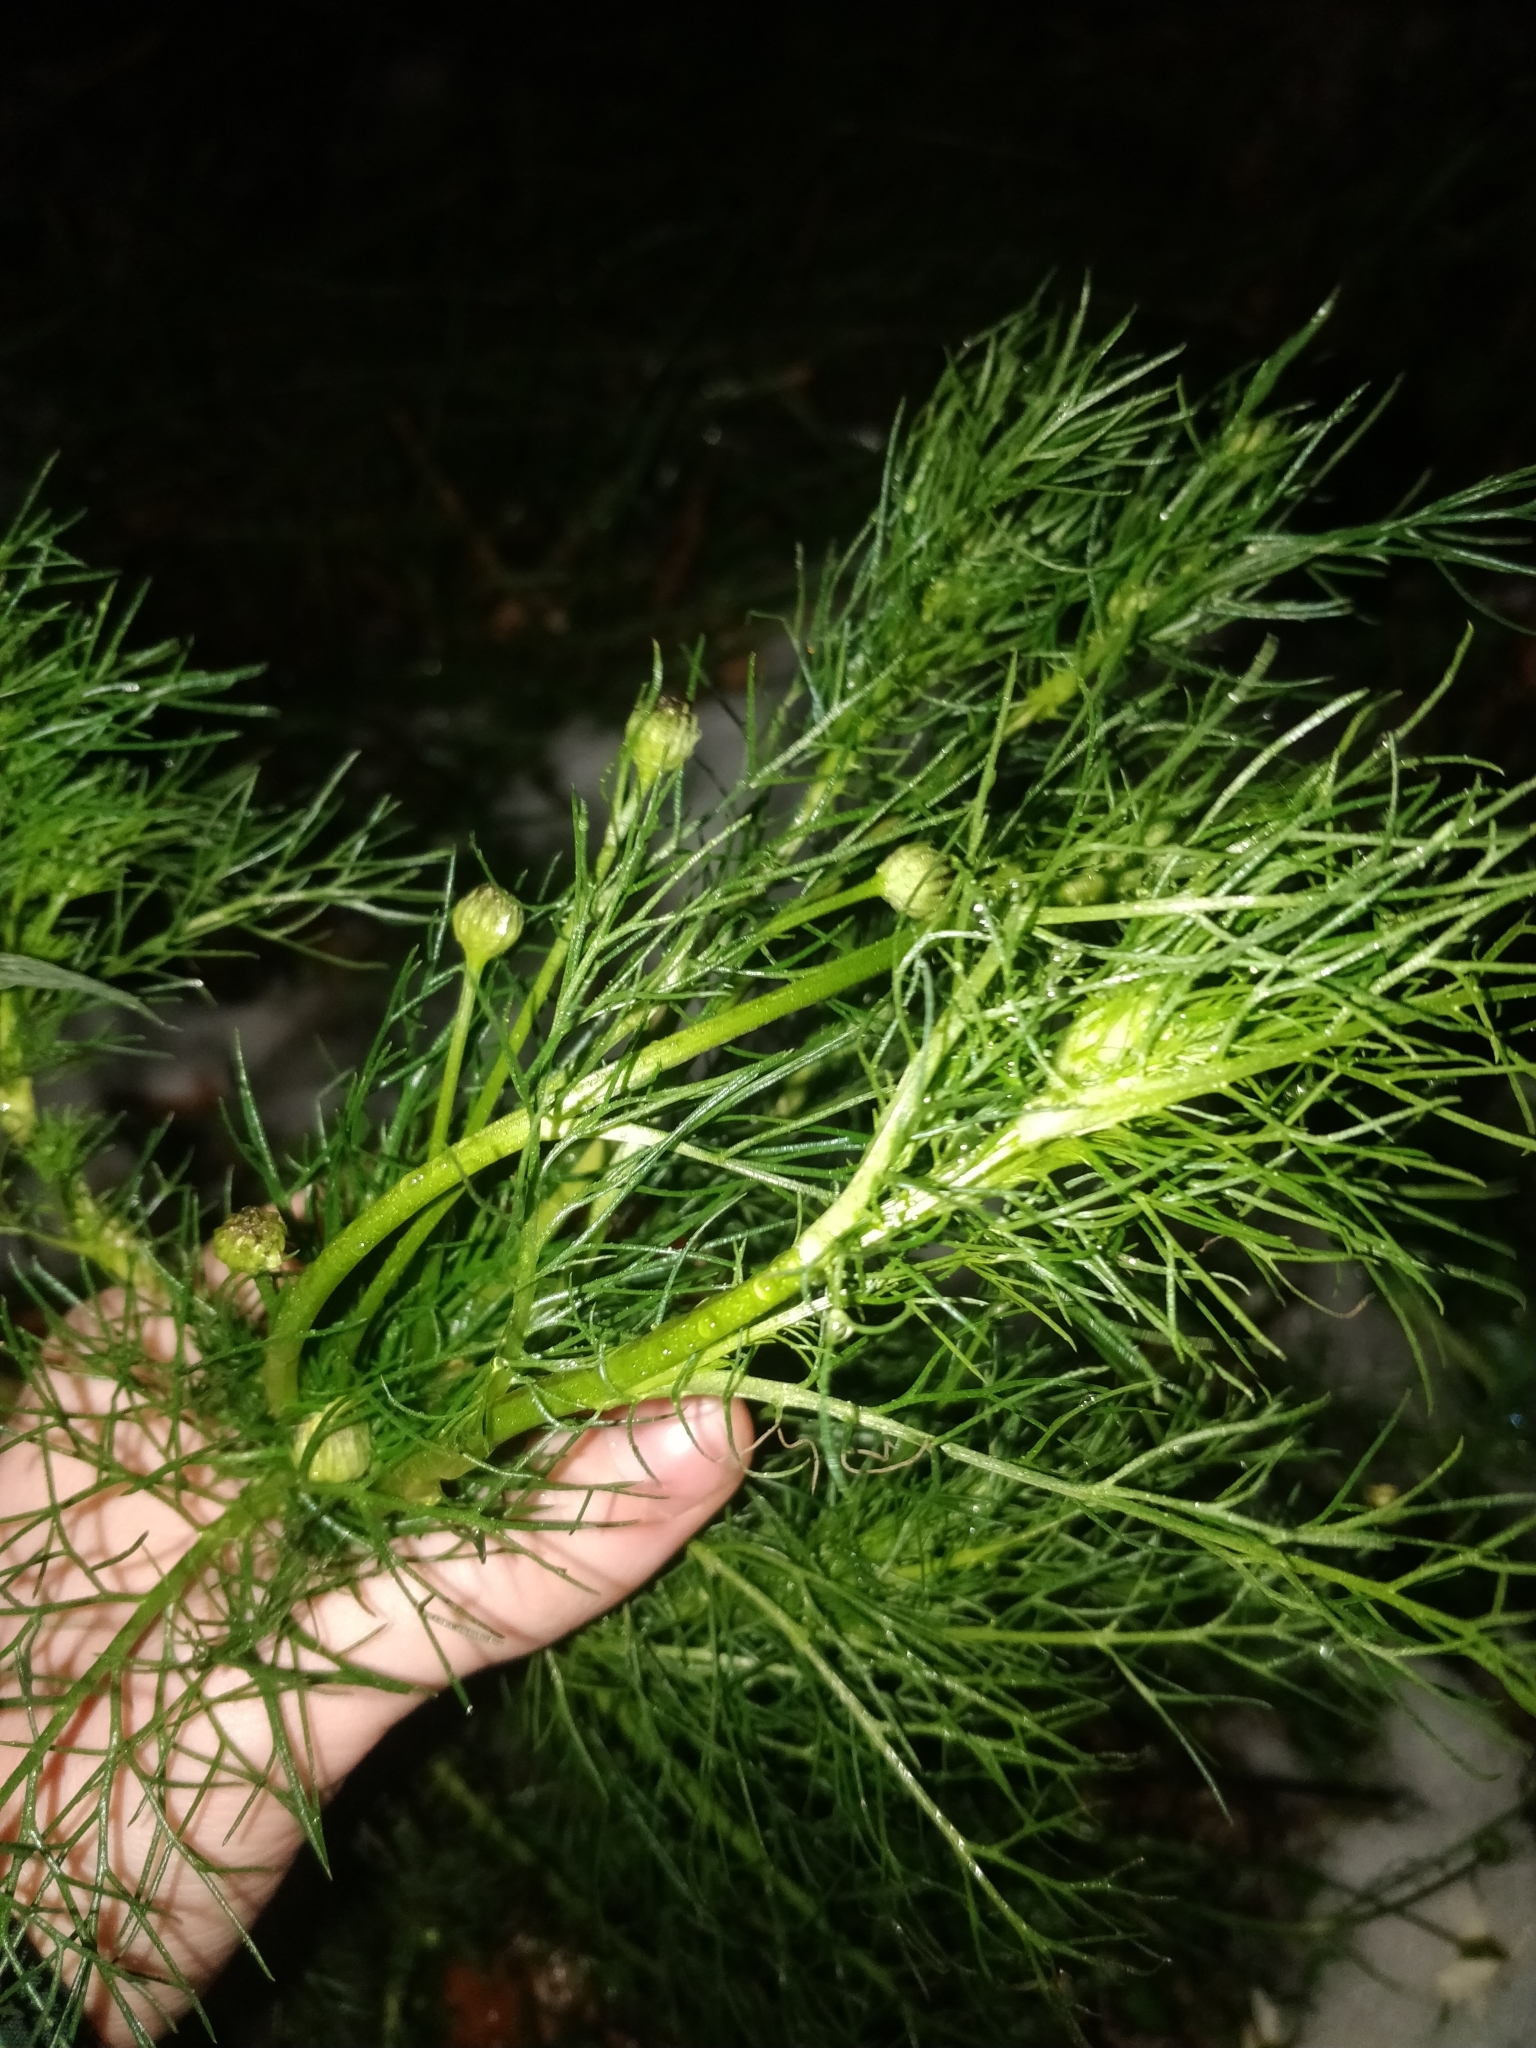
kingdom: Plantae
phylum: Tracheophyta
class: Magnoliopsida
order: Asterales
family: Asteraceae
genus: Tripleurospermum
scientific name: Tripleurospermum inodorum
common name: Scentless mayweed
